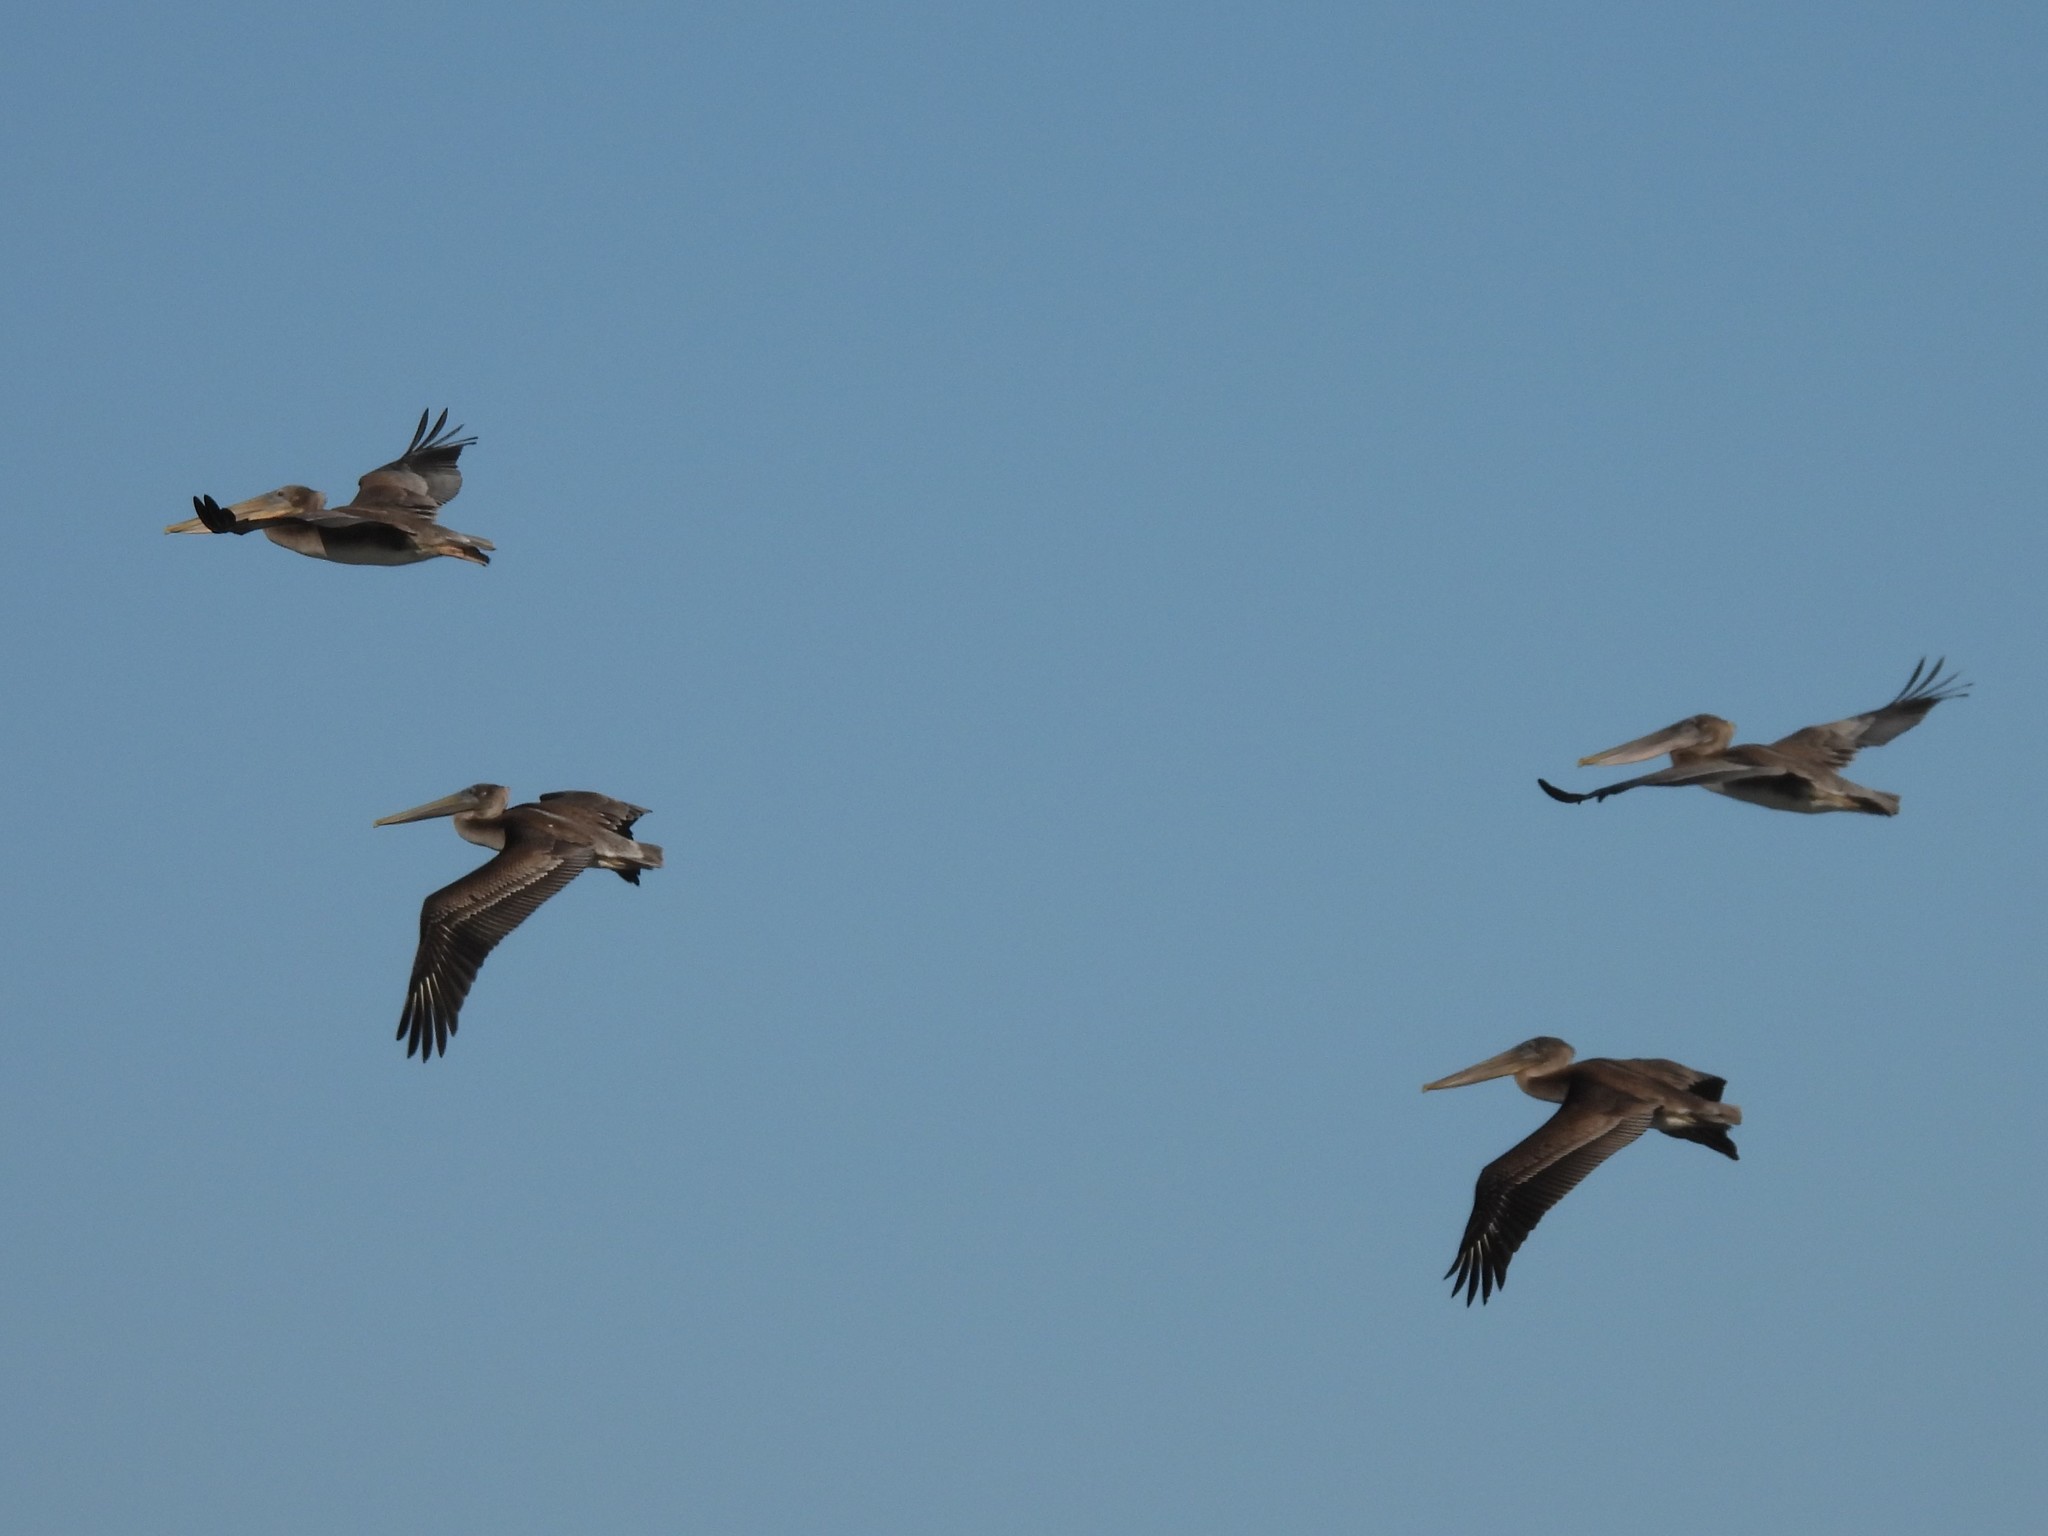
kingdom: Animalia
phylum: Chordata
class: Aves
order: Pelecaniformes
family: Pelecanidae
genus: Pelecanus
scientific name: Pelecanus occidentalis
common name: Brown pelican
